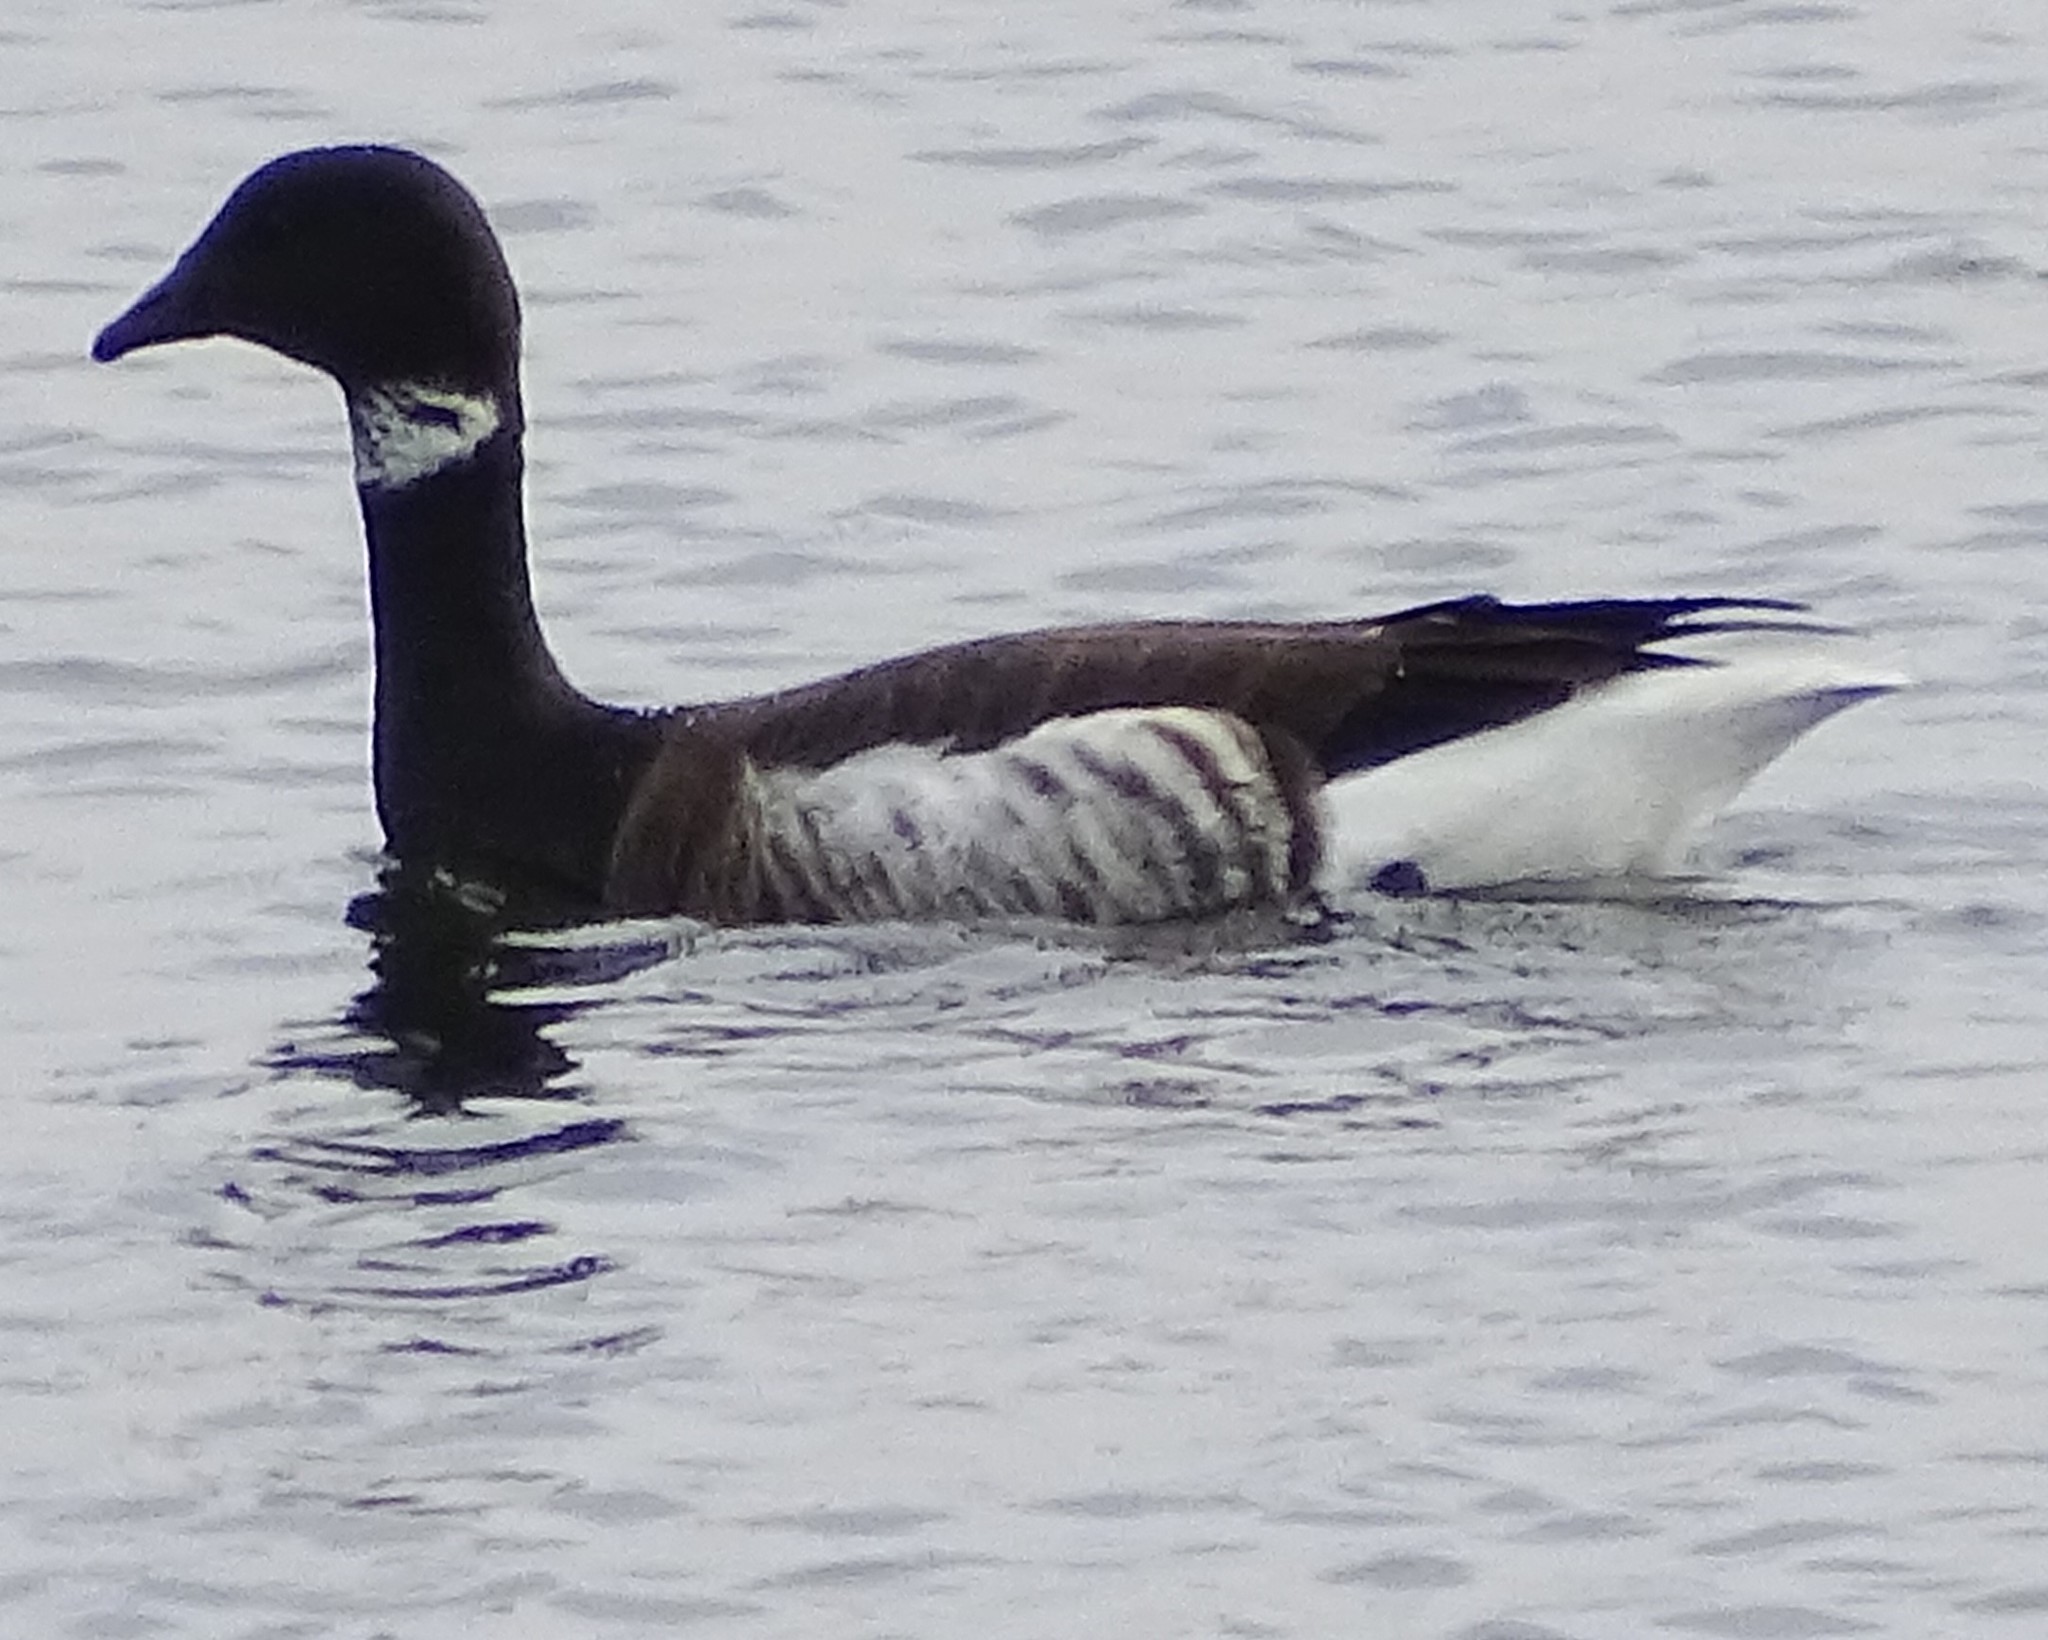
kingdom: Animalia
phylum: Chordata
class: Aves
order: Anseriformes
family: Anatidae
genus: Branta
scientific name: Branta bernicla
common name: Brant goose
